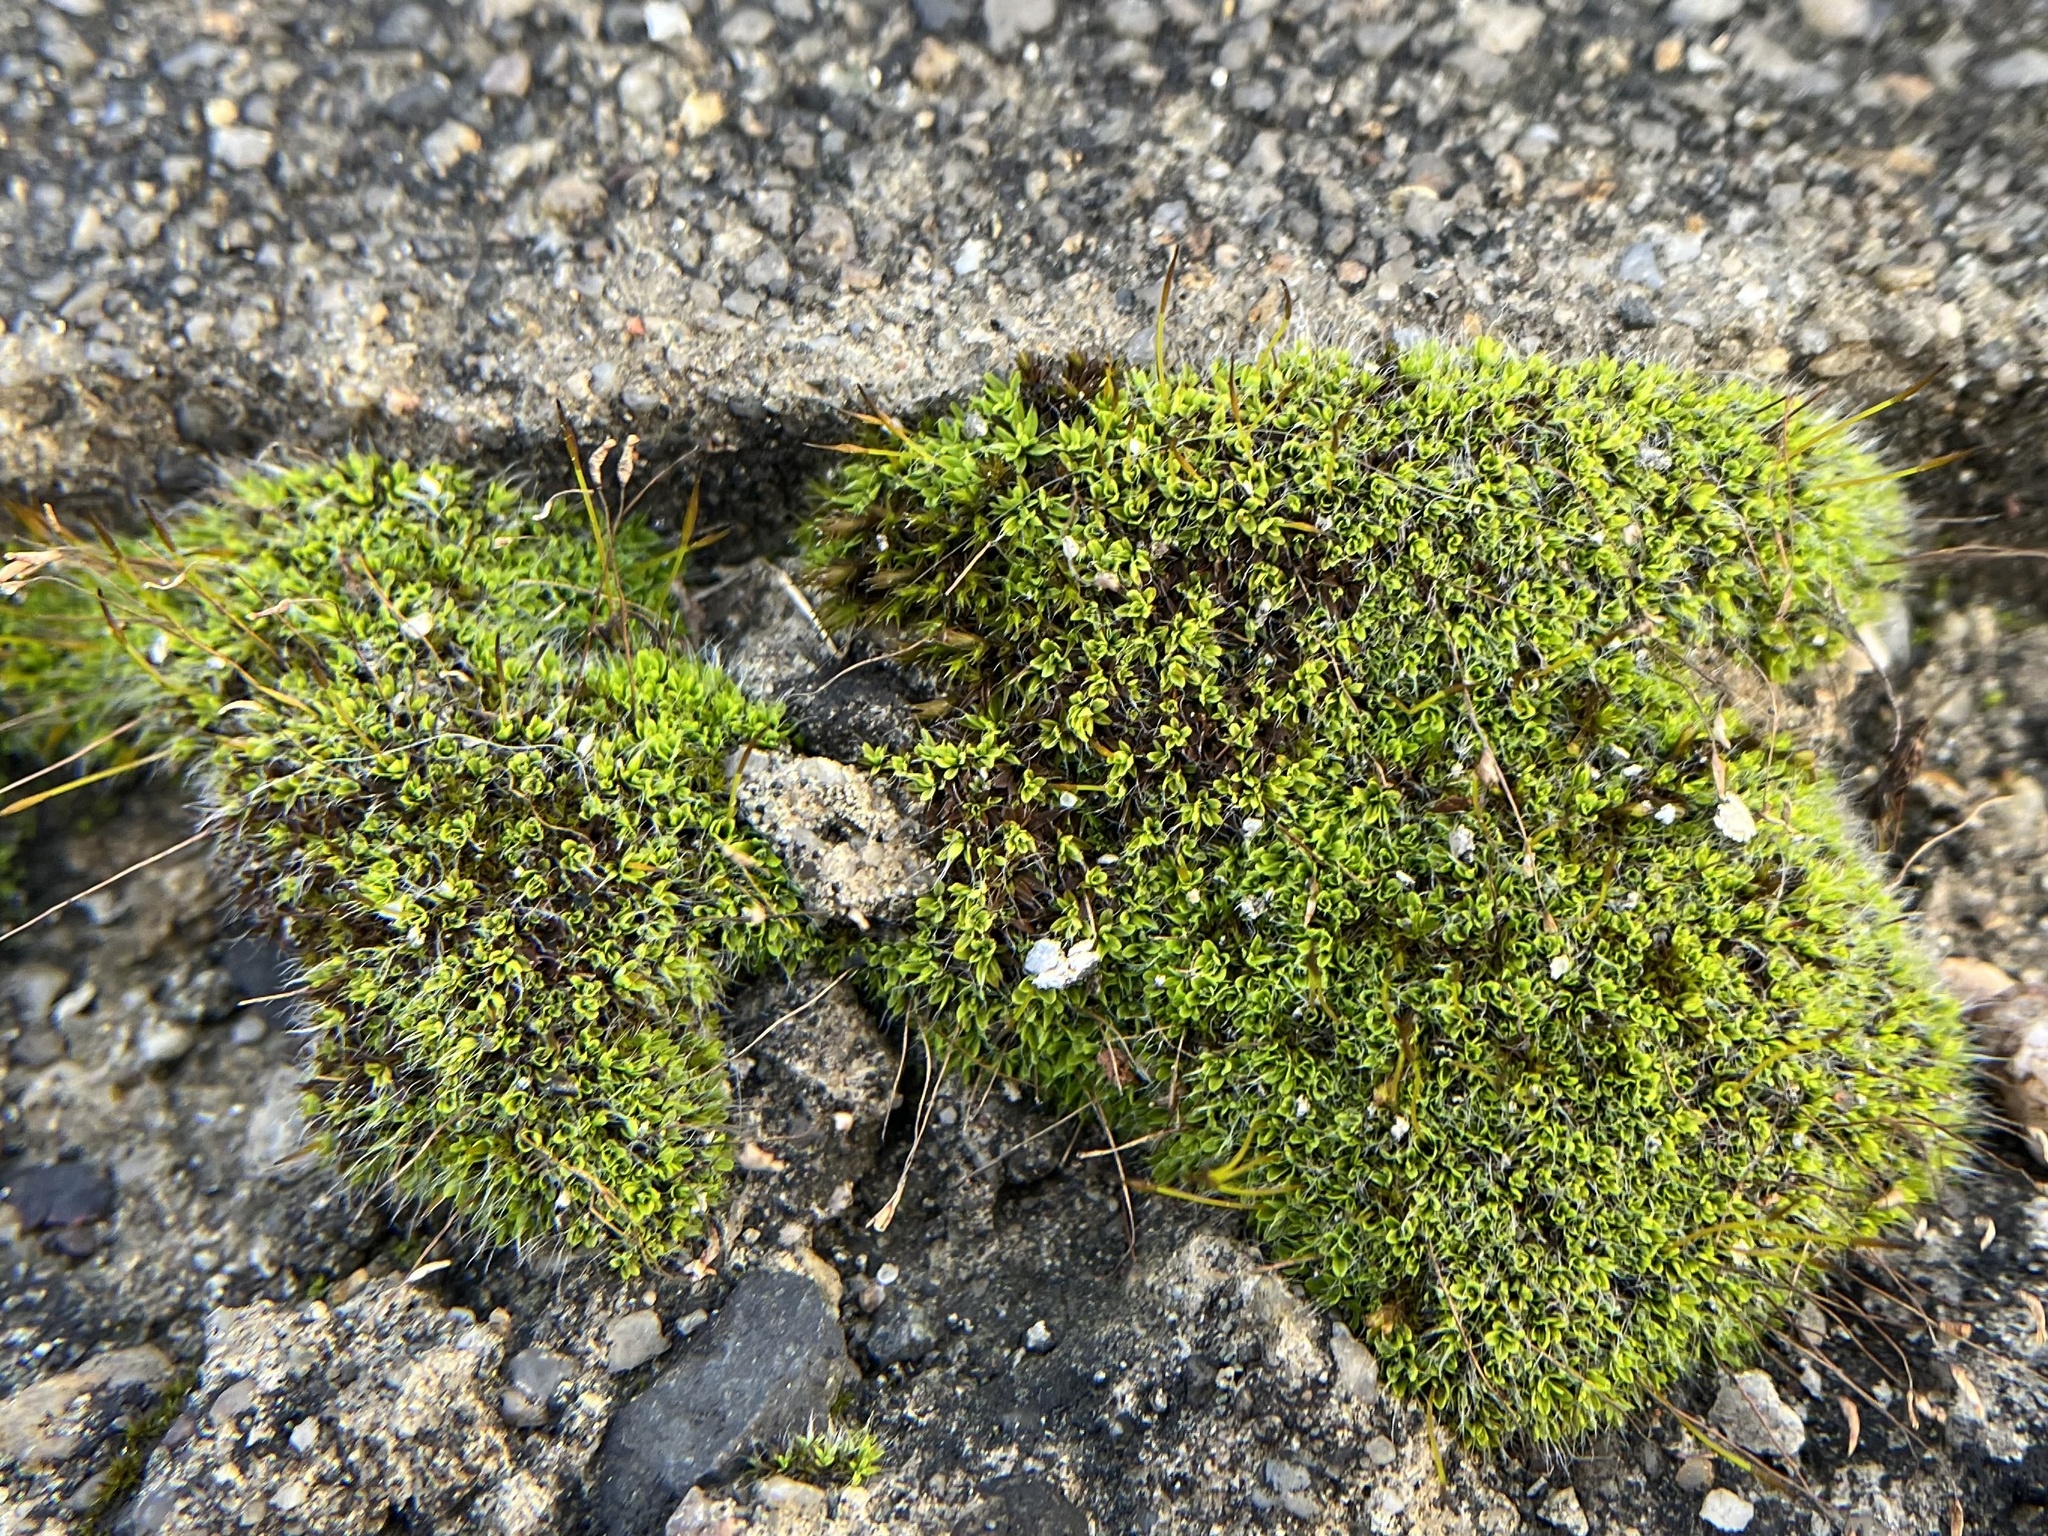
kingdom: Plantae
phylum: Bryophyta
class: Bryopsida
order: Pottiales
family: Pottiaceae
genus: Tortula
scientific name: Tortula muralis
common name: Wall screw-moss
